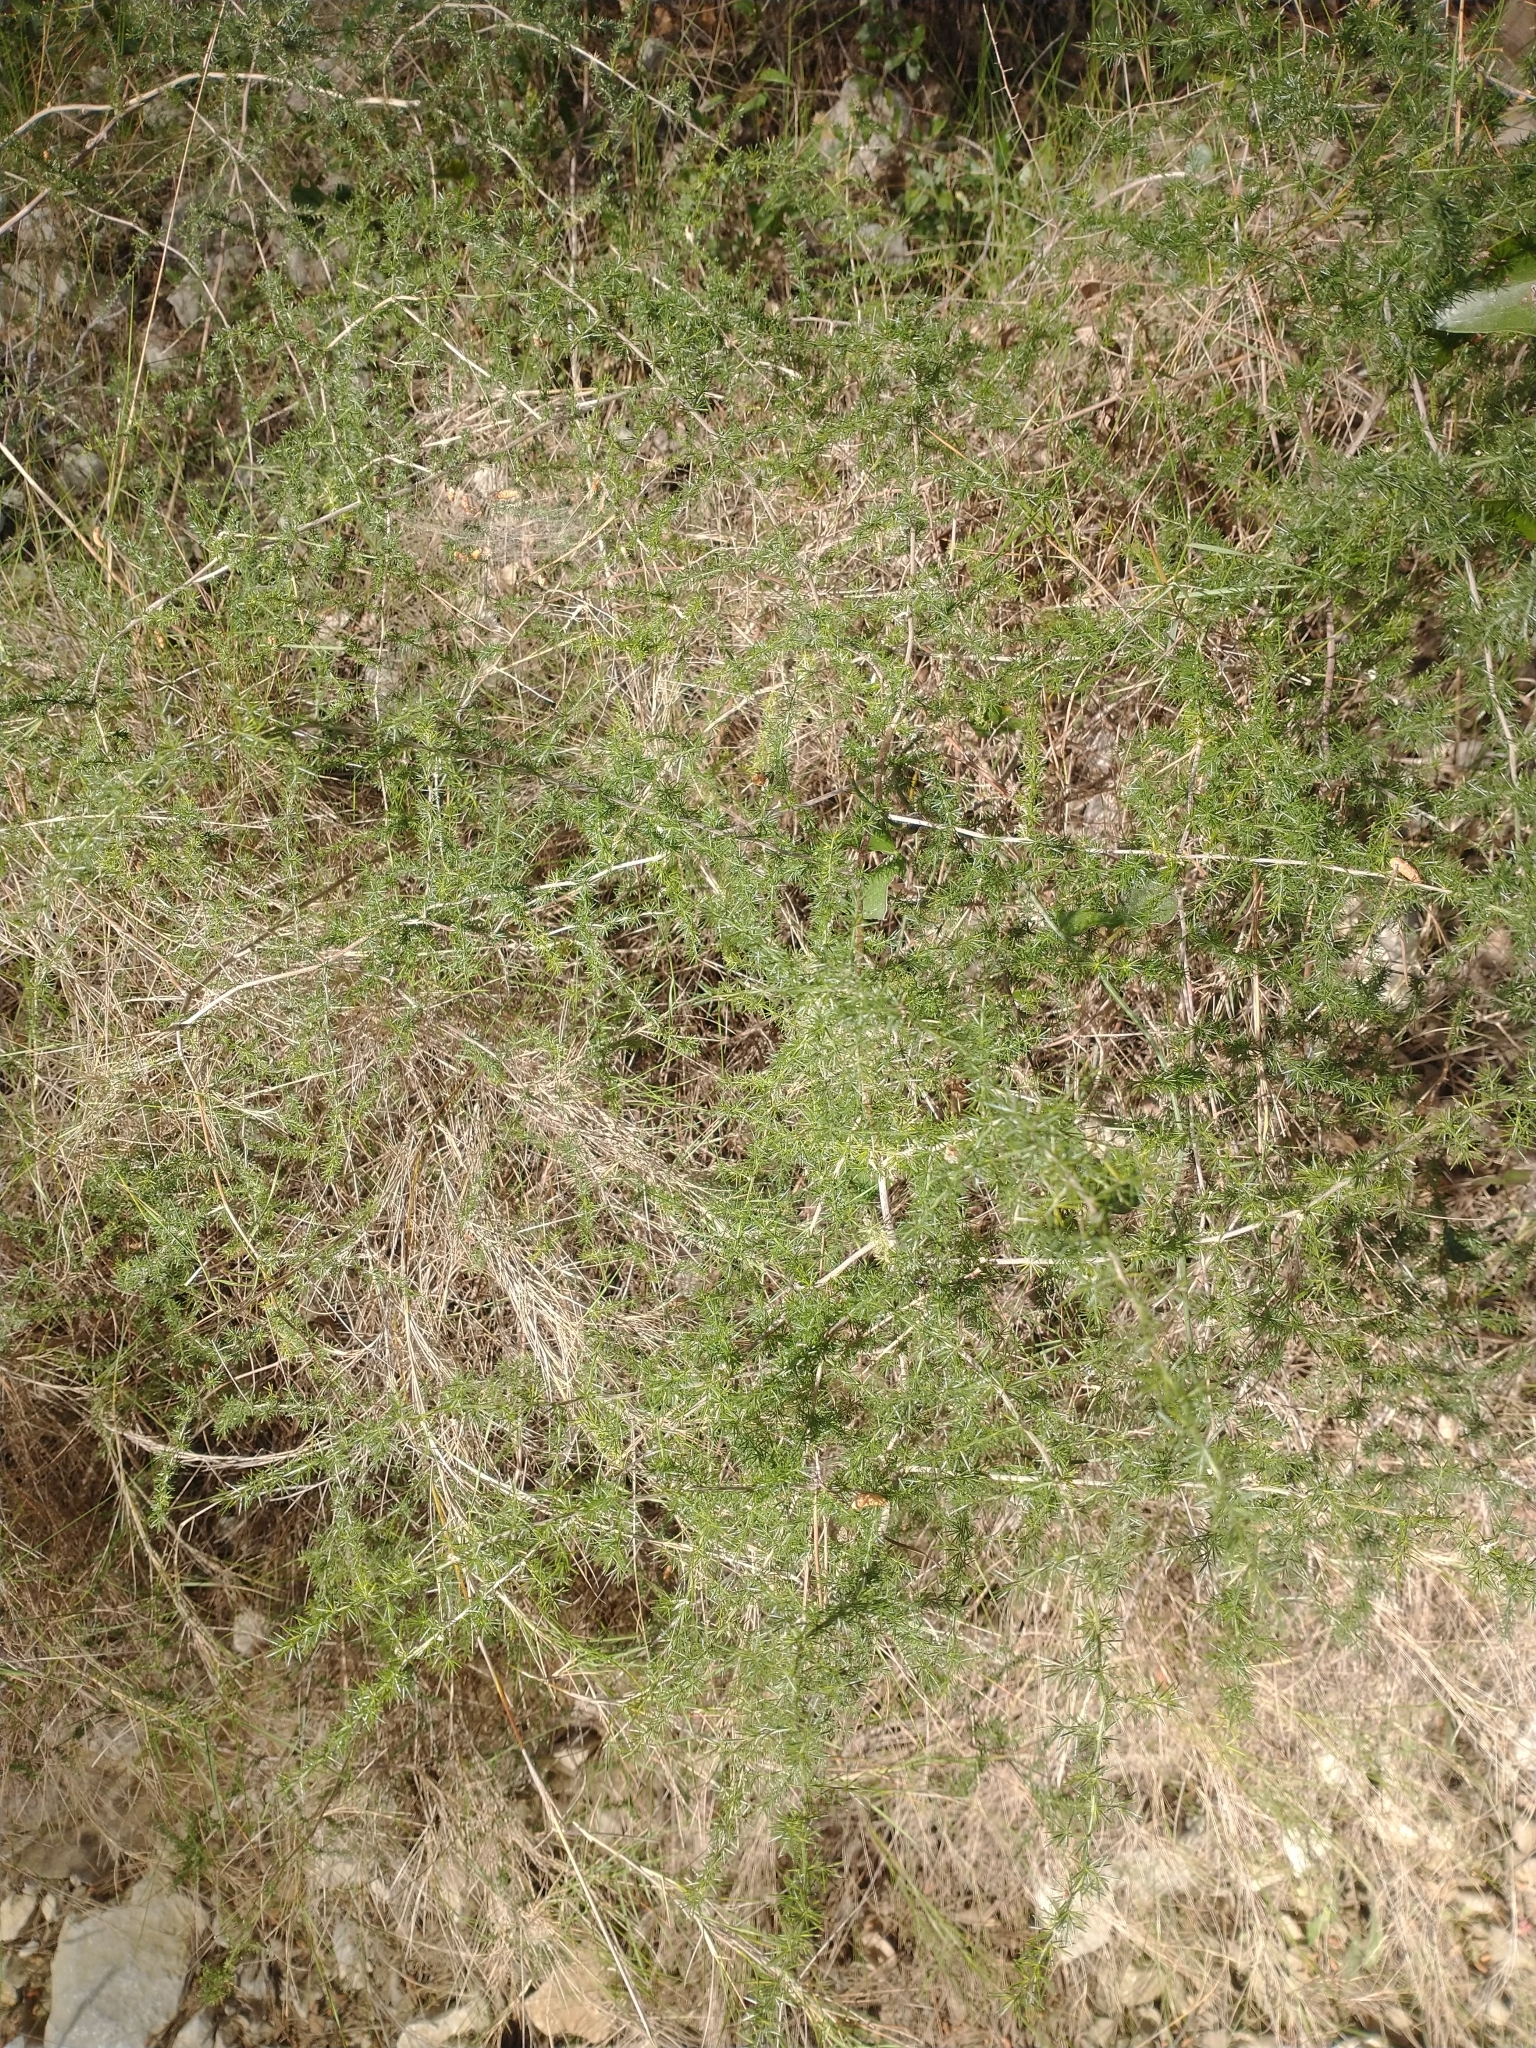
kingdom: Plantae
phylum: Tracheophyta
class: Liliopsida
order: Asparagales
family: Asparagaceae
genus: Asparagus
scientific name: Asparagus acutifolius
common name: Wild asparagus
